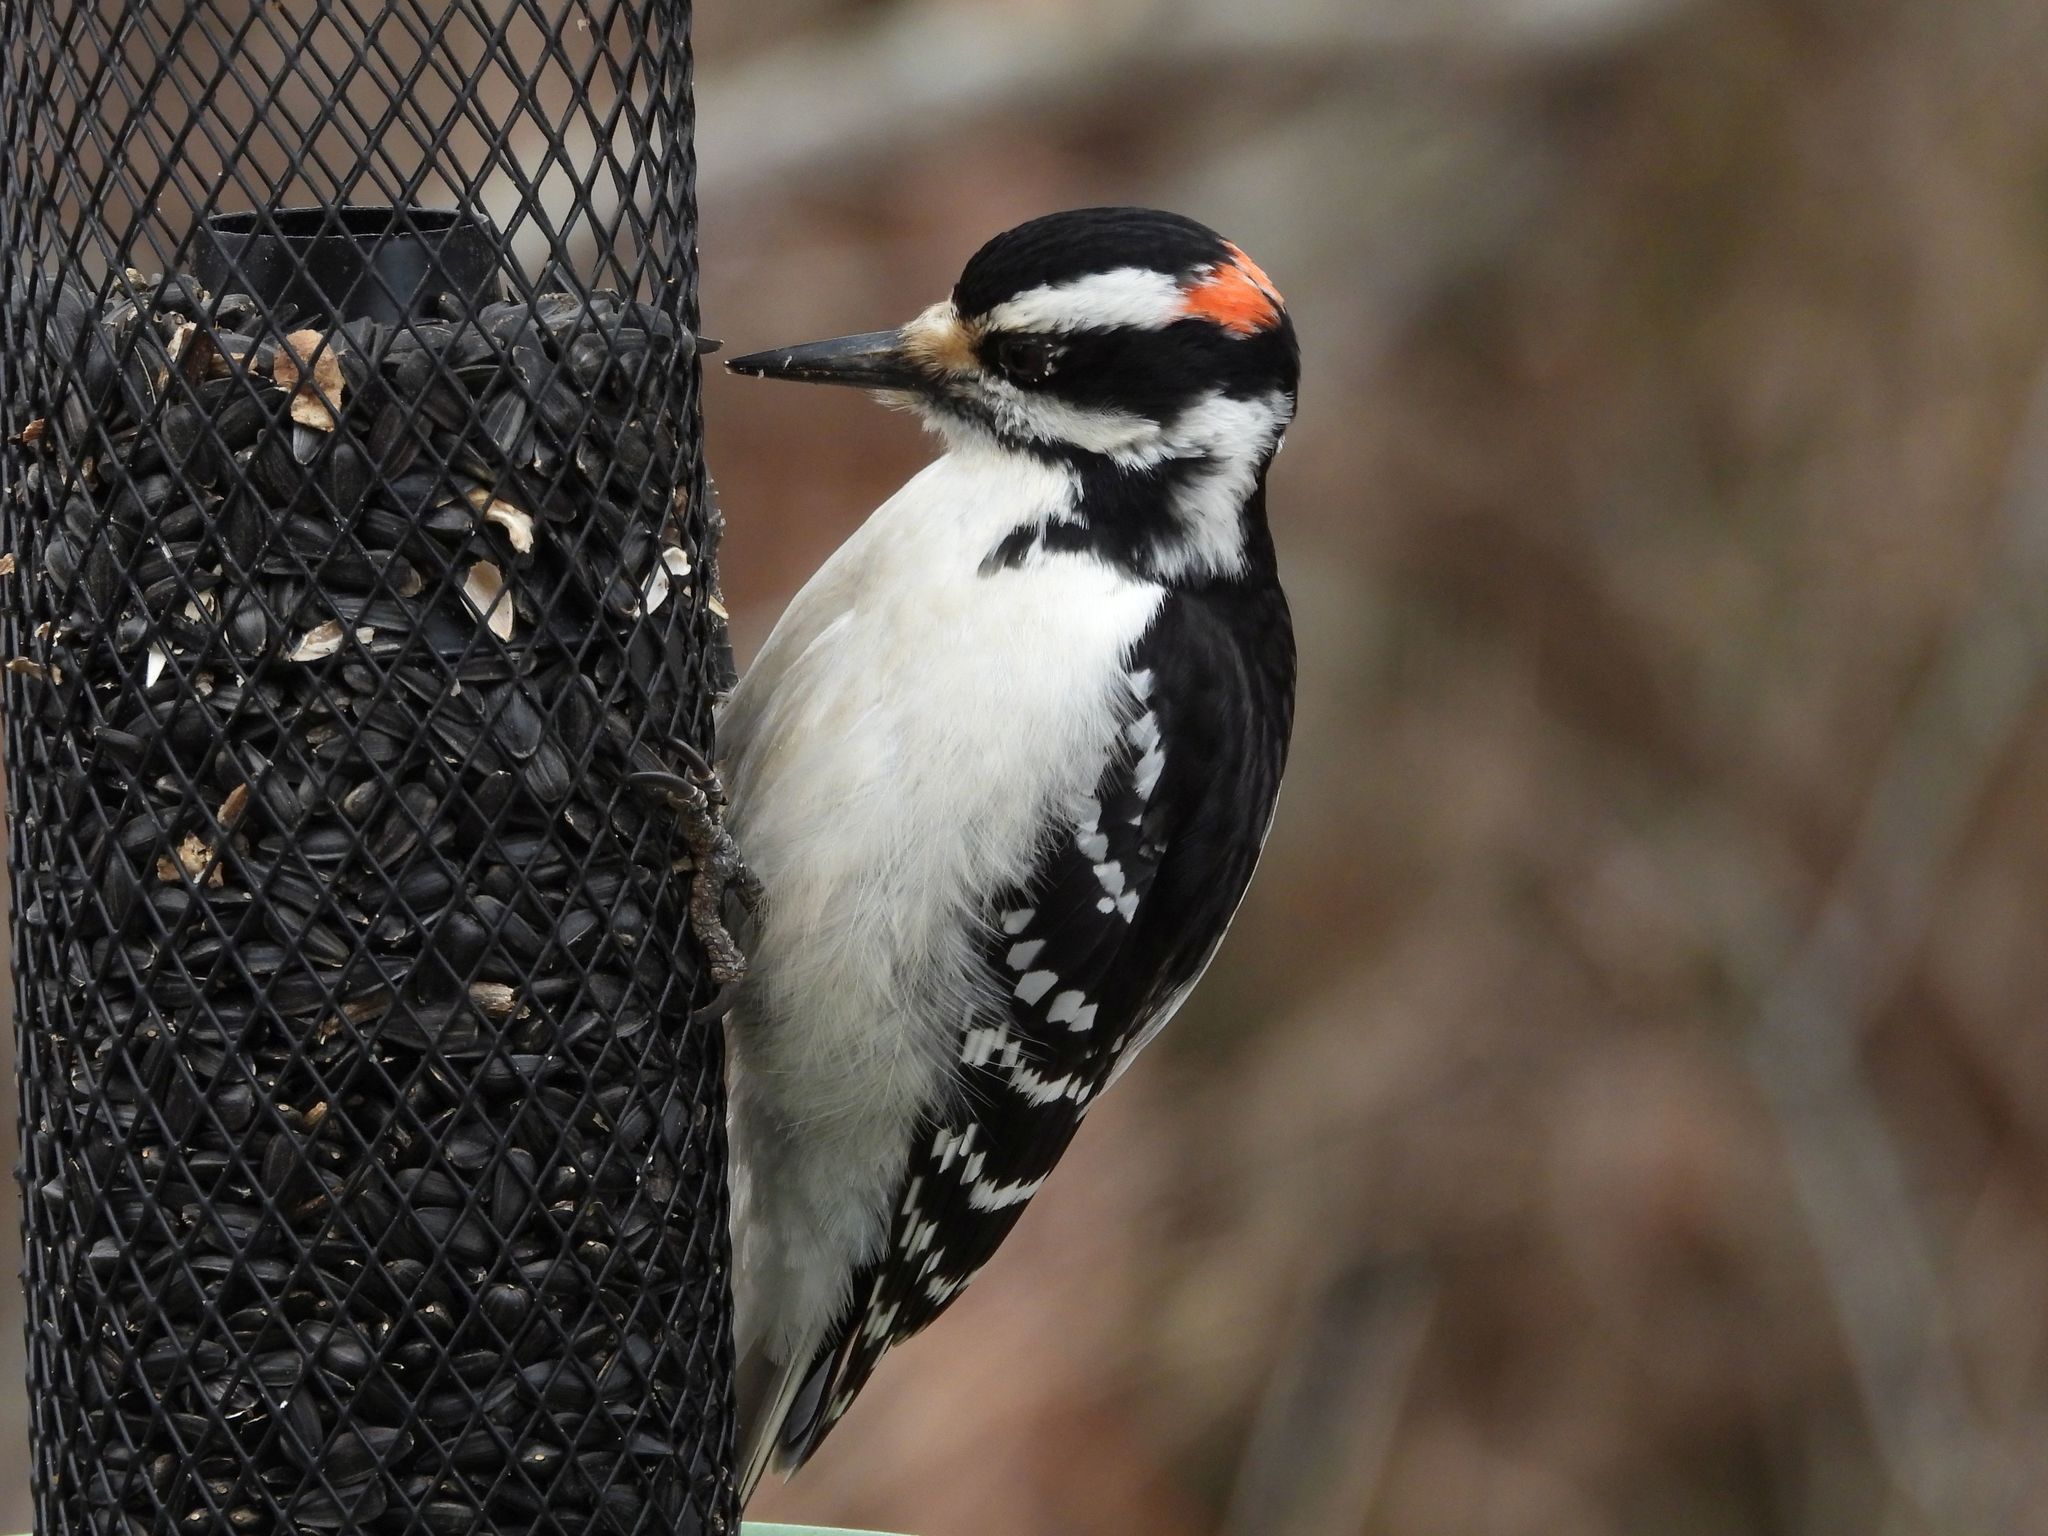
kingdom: Animalia
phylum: Chordata
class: Aves
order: Piciformes
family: Picidae
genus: Leuconotopicus
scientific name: Leuconotopicus villosus
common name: Hairy woodpecker
